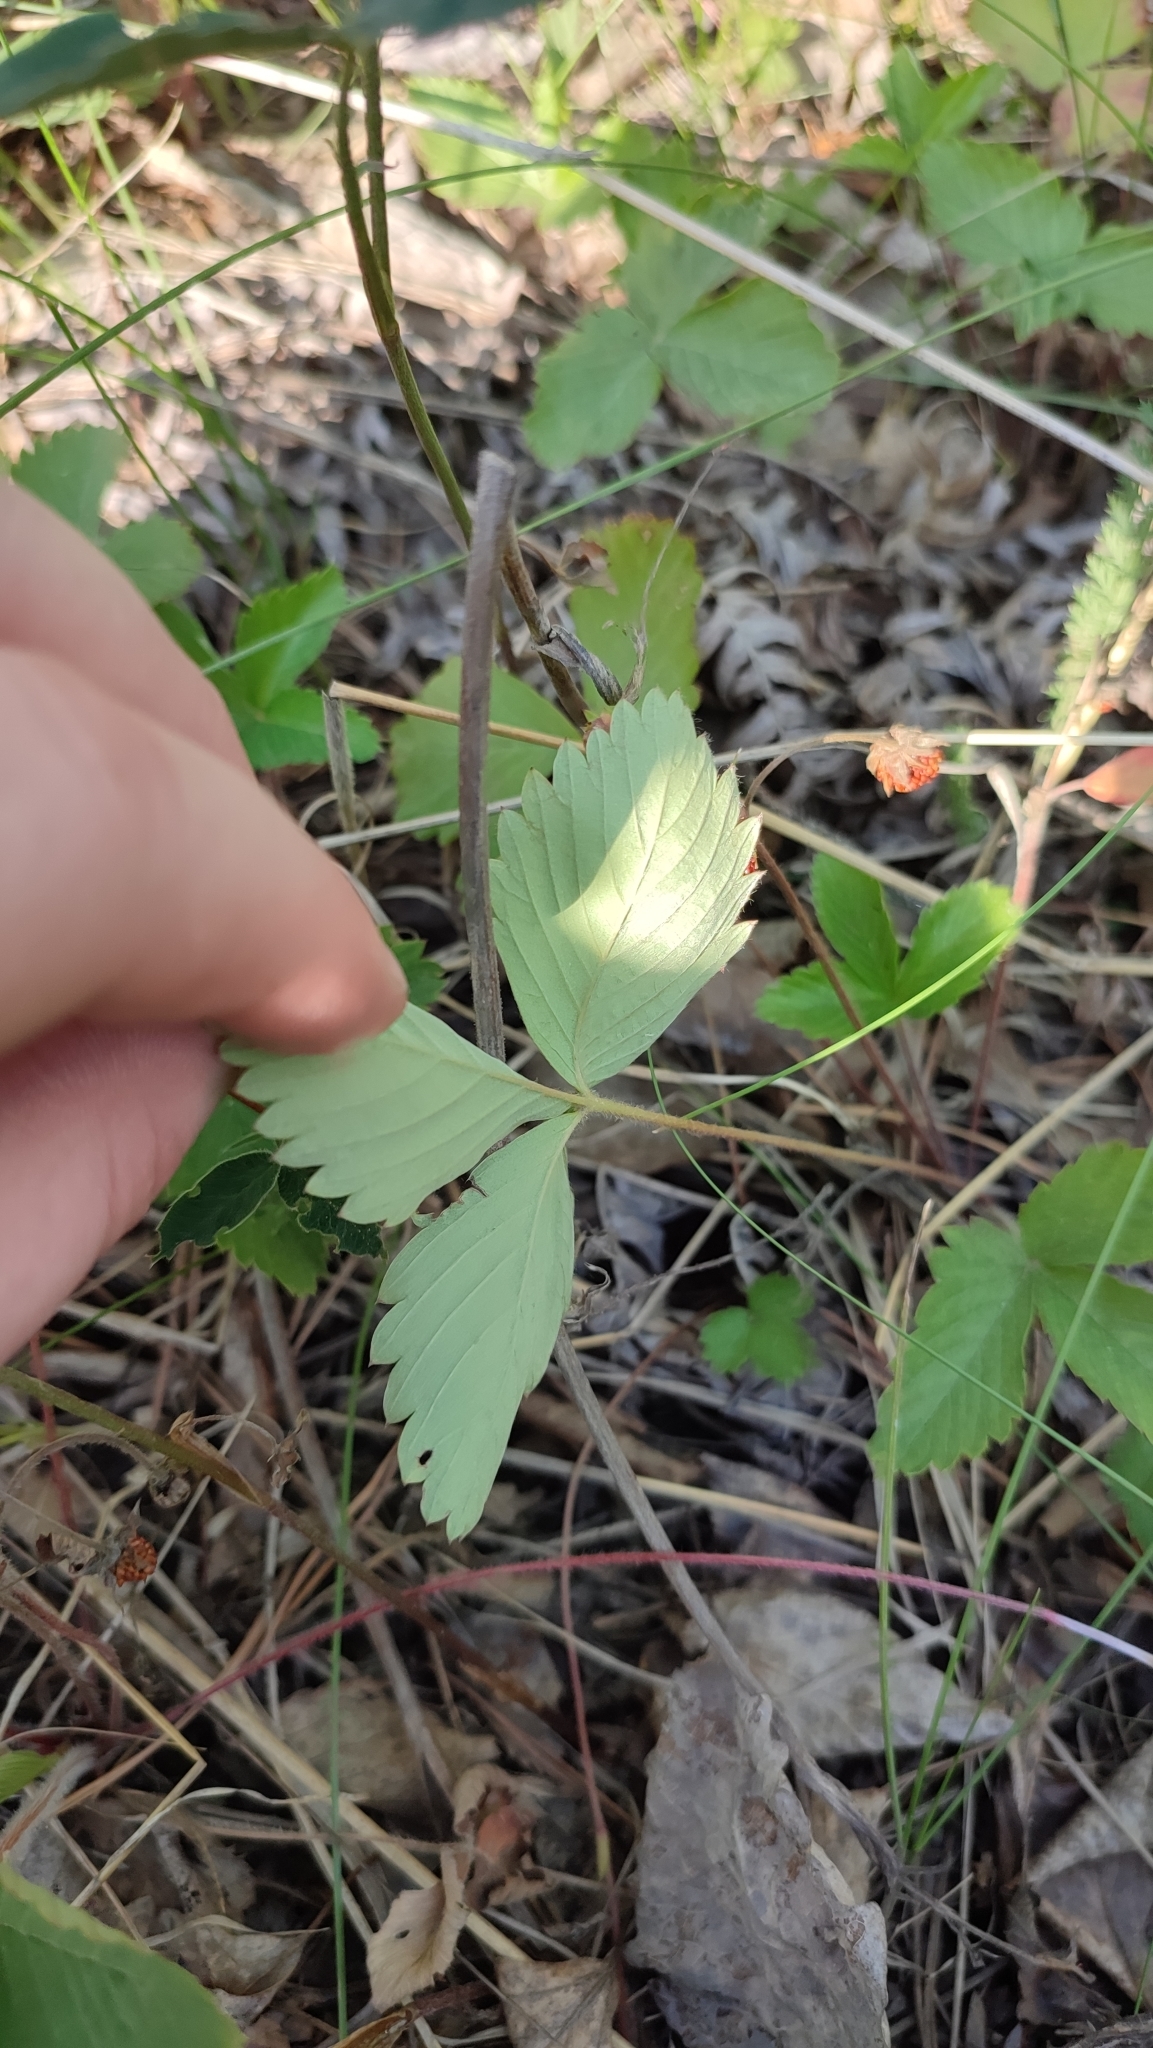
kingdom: Plantae
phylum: Tracheophyta
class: Magnoliopsida
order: Rosales
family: Rosaceae
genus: Fragaria
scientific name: Fragaria viridis
